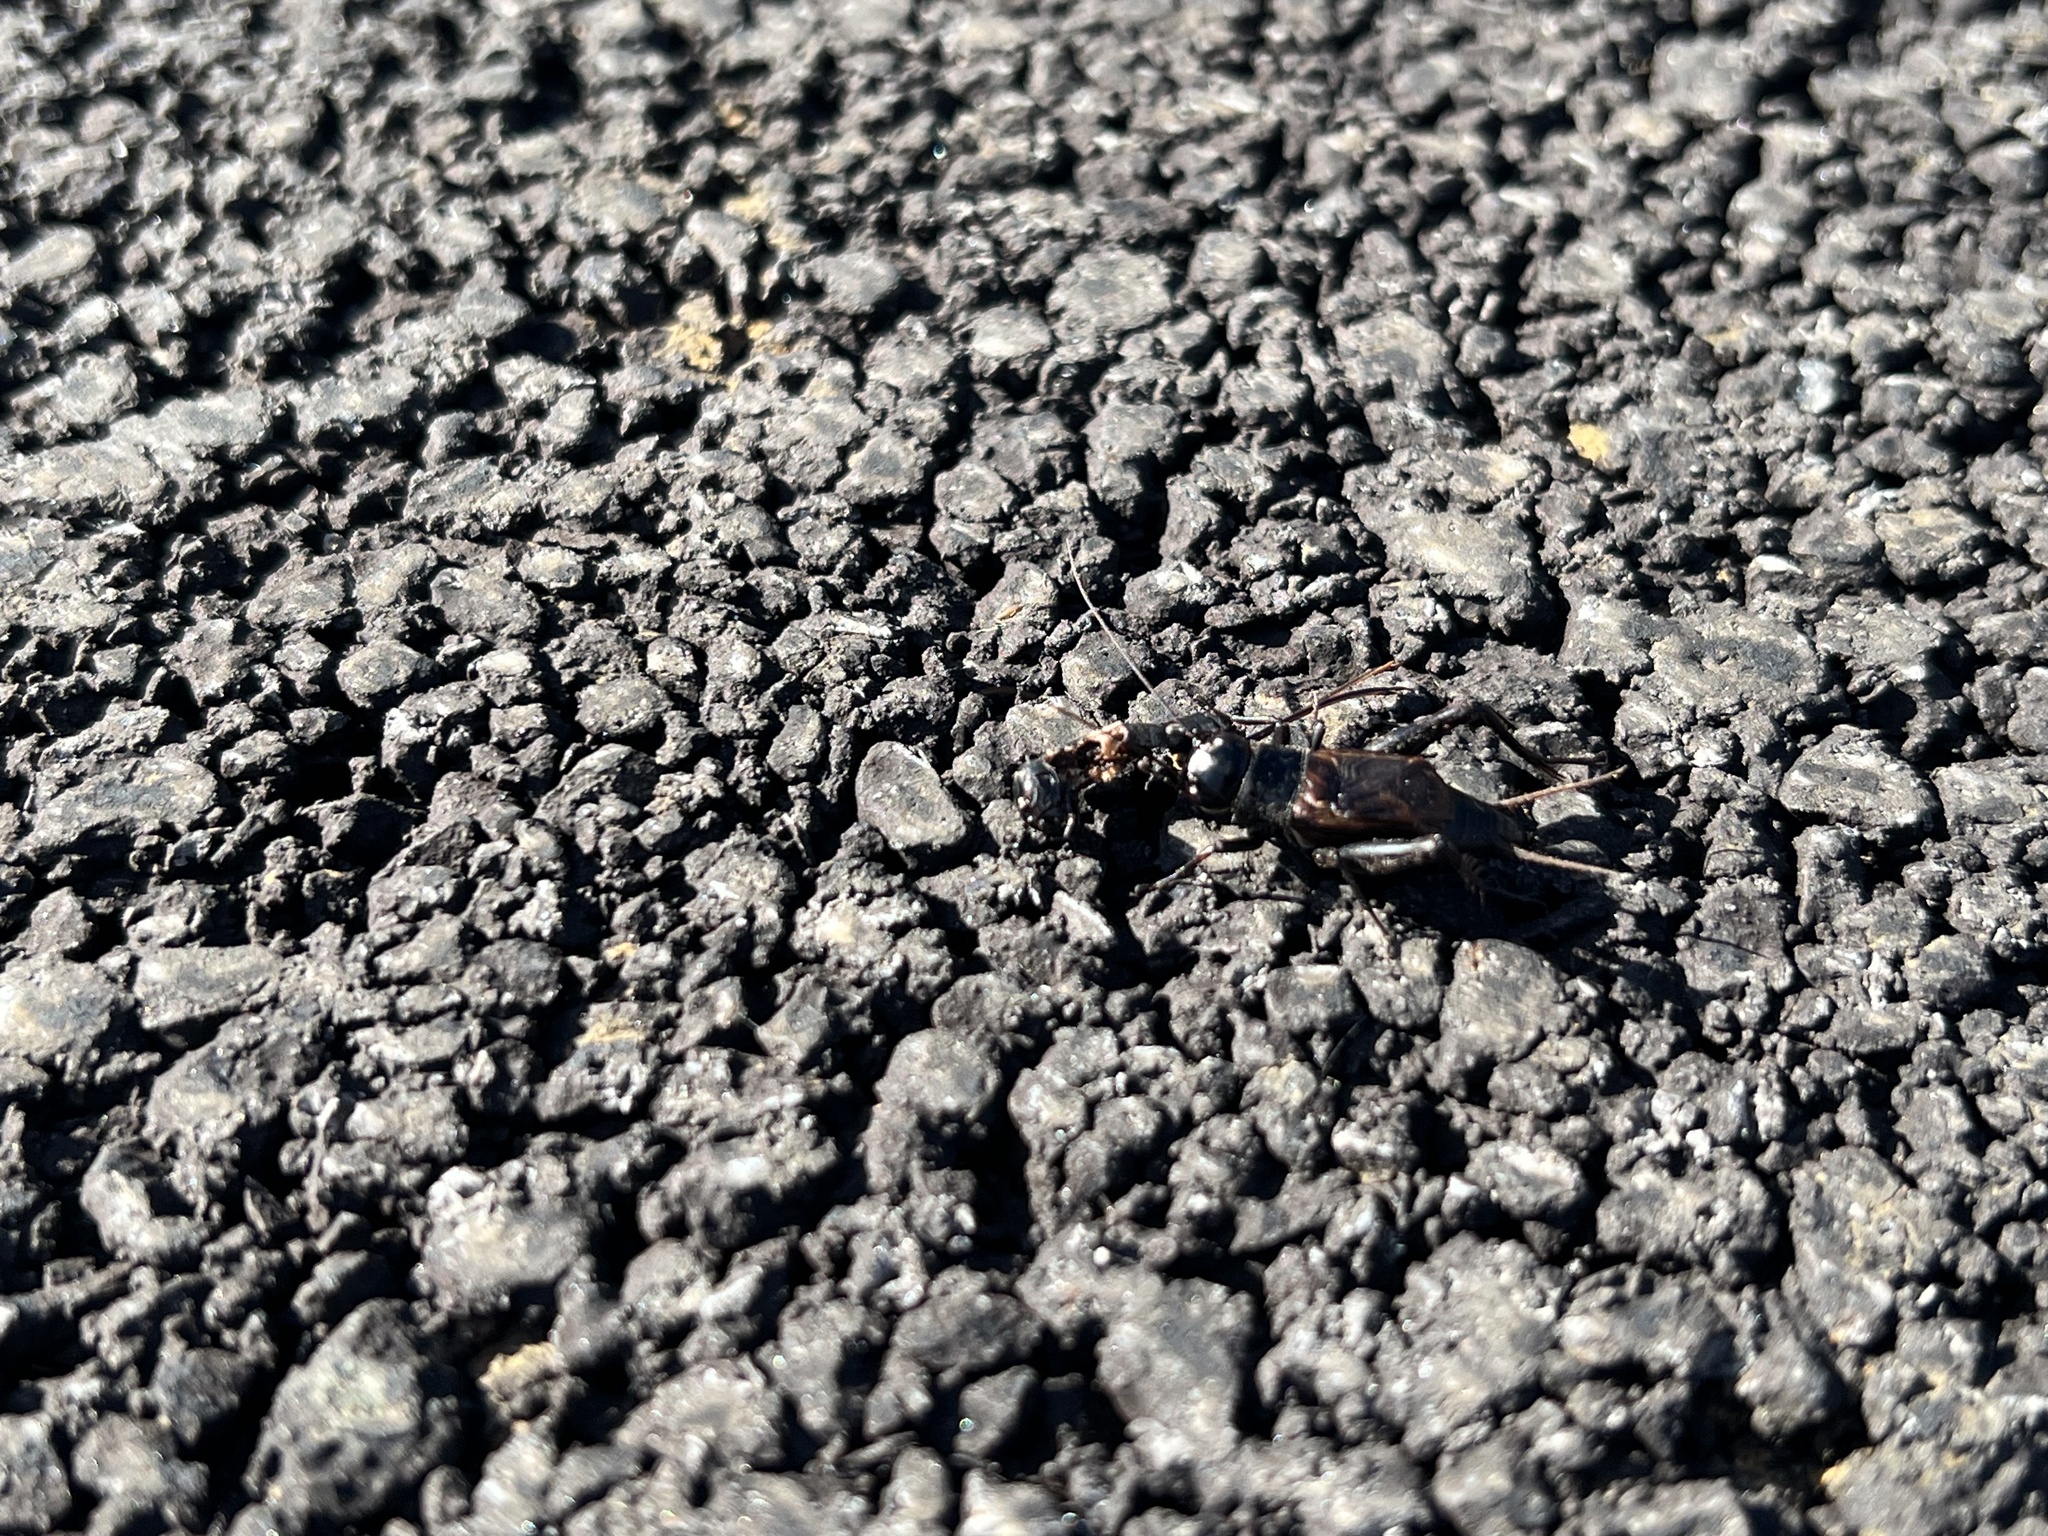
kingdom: Animalia
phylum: Arthropoda
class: Insecta
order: Orthoptera
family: Gryllidae
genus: Gryllus
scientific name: Gryllus pennsylvanicus
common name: Fall field cricket
